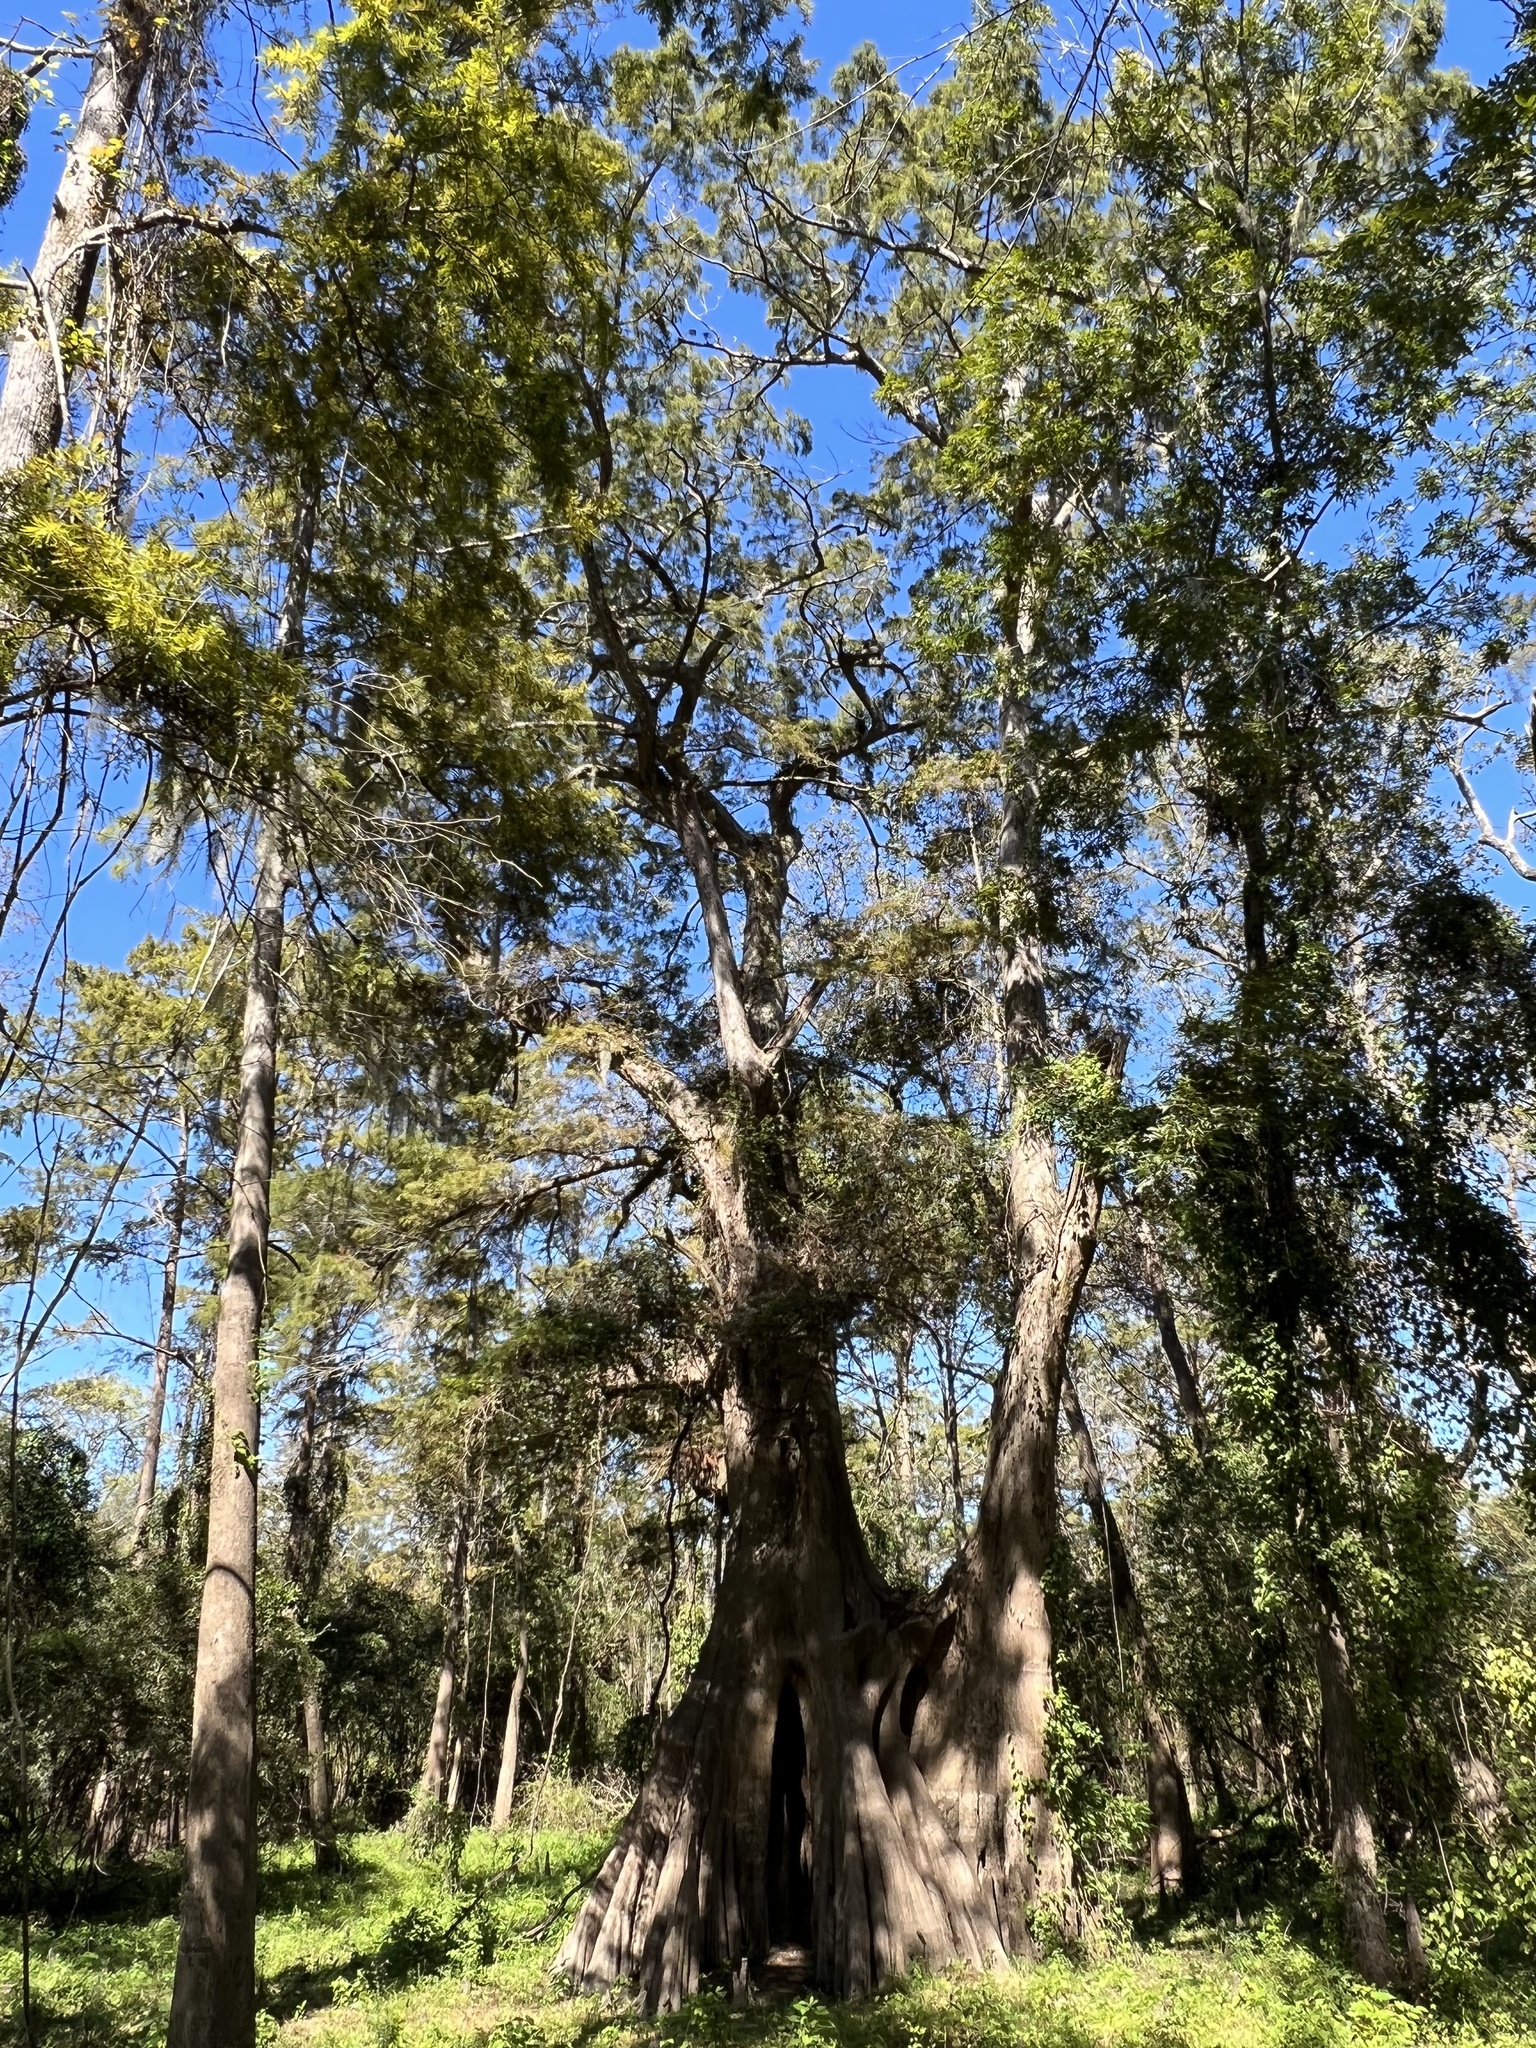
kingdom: Plantae
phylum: Tracheophyta
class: Pinopsida
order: Pinales
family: Cupressaceae
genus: Taxodium
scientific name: Taxodium distichum
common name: Bald cypress
